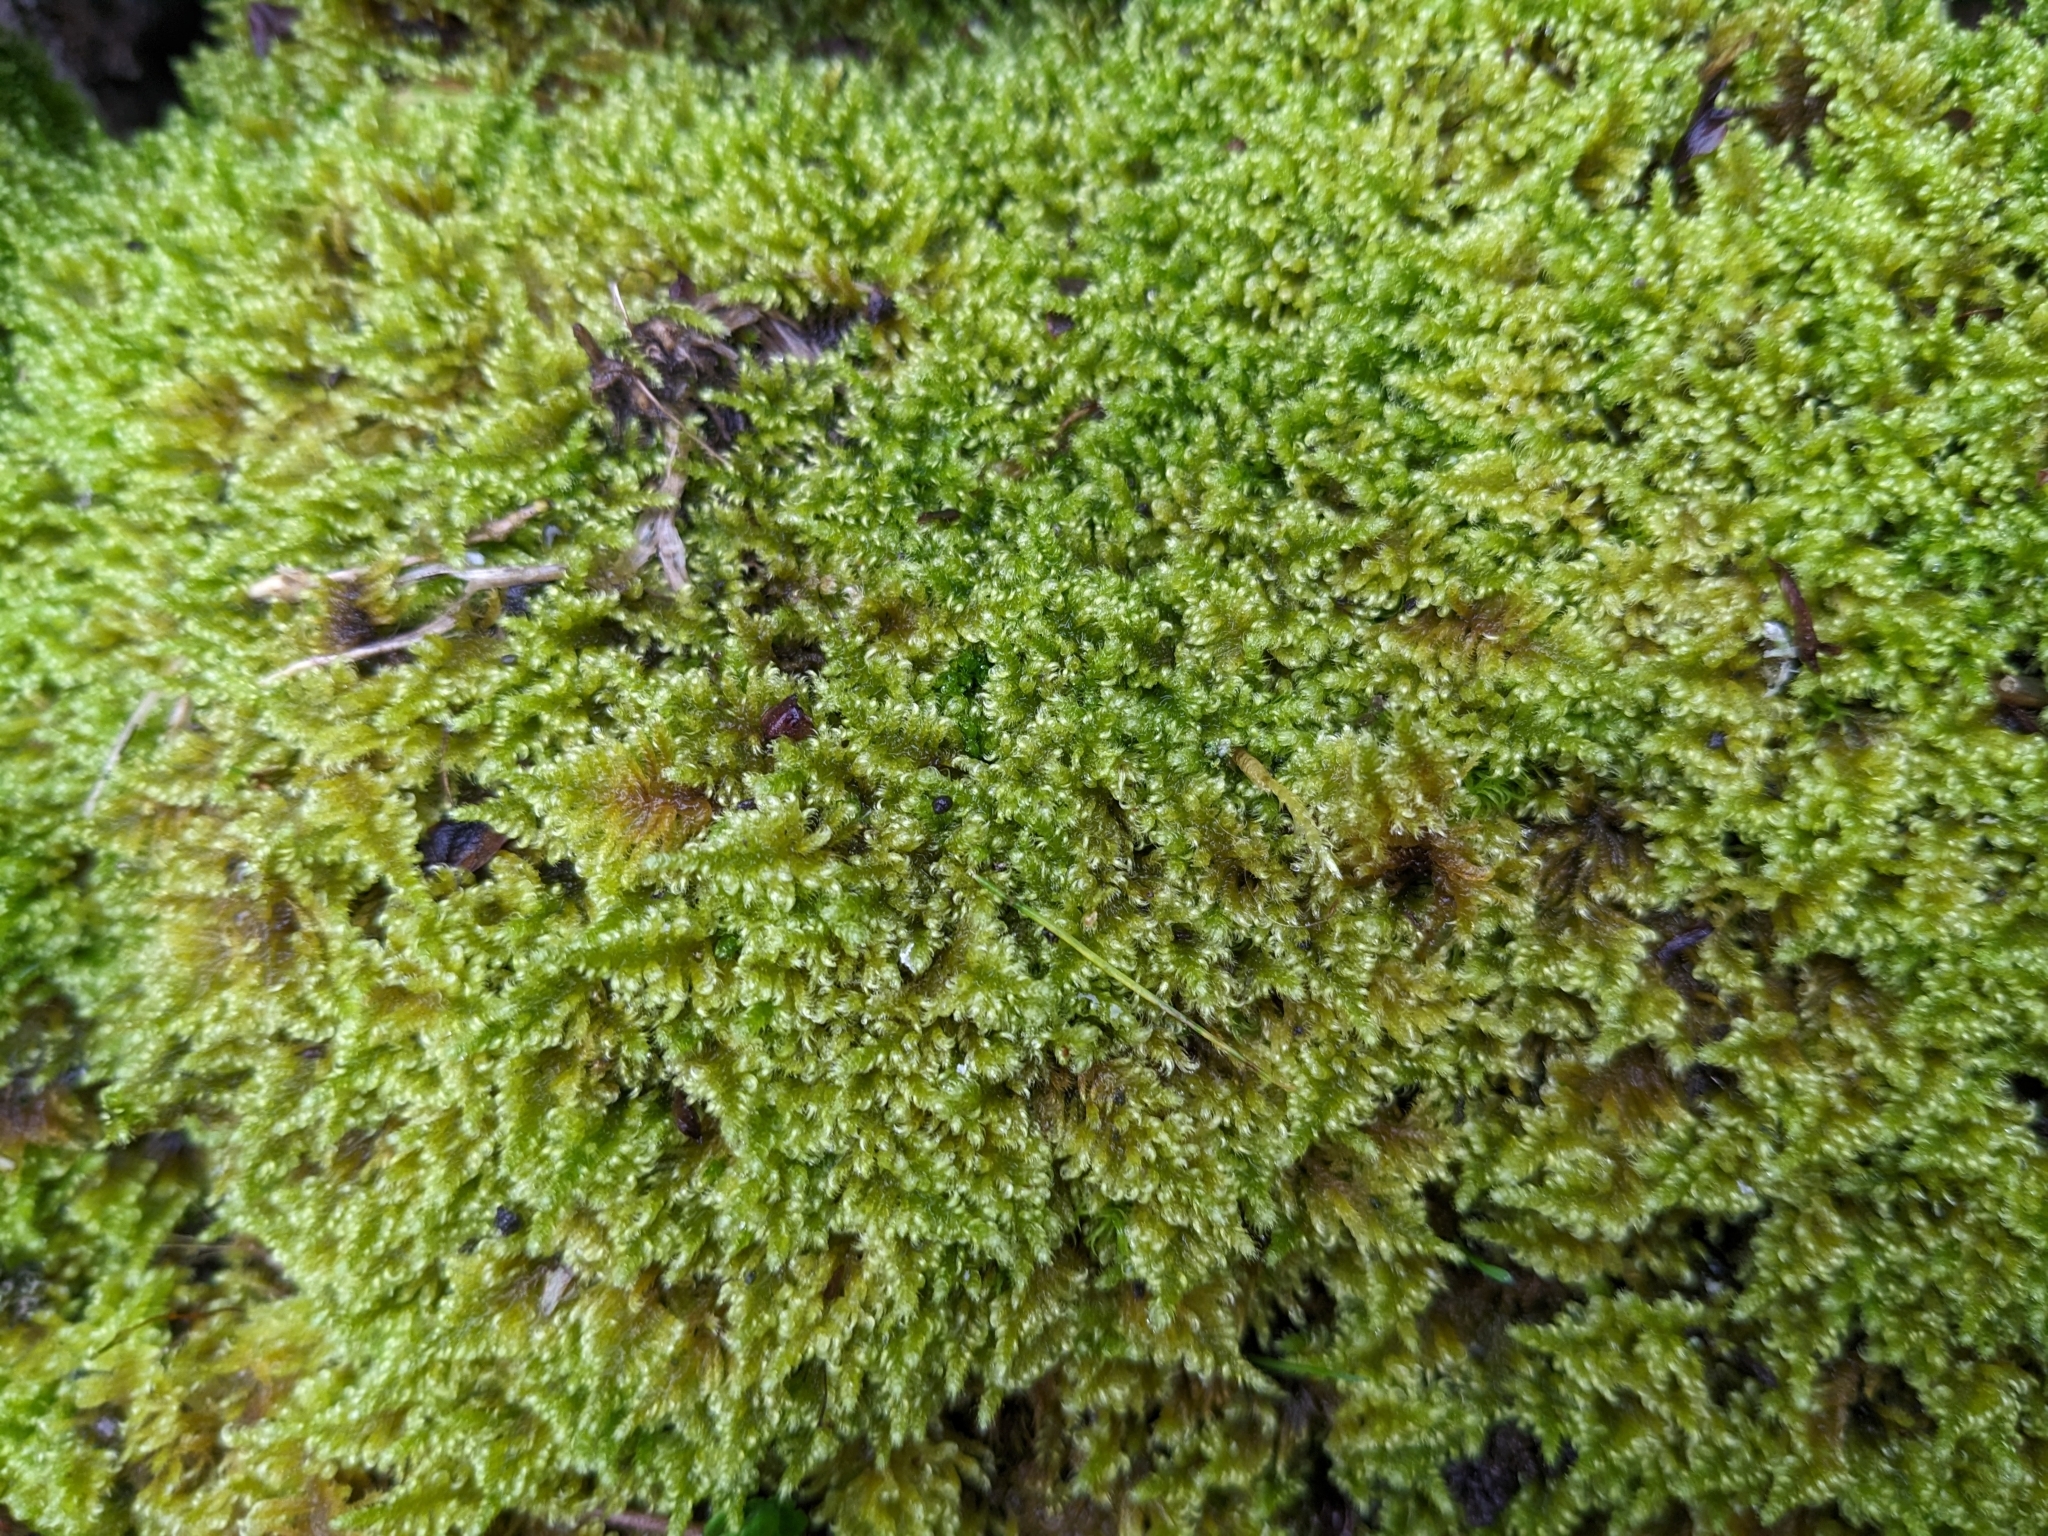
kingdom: Plantae
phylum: Bryophyta
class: Bryopsida
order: Hypnales
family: Myuriaceae
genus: Ctenidium
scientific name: Ctenidium molluscum
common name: Chalk comb-moss
